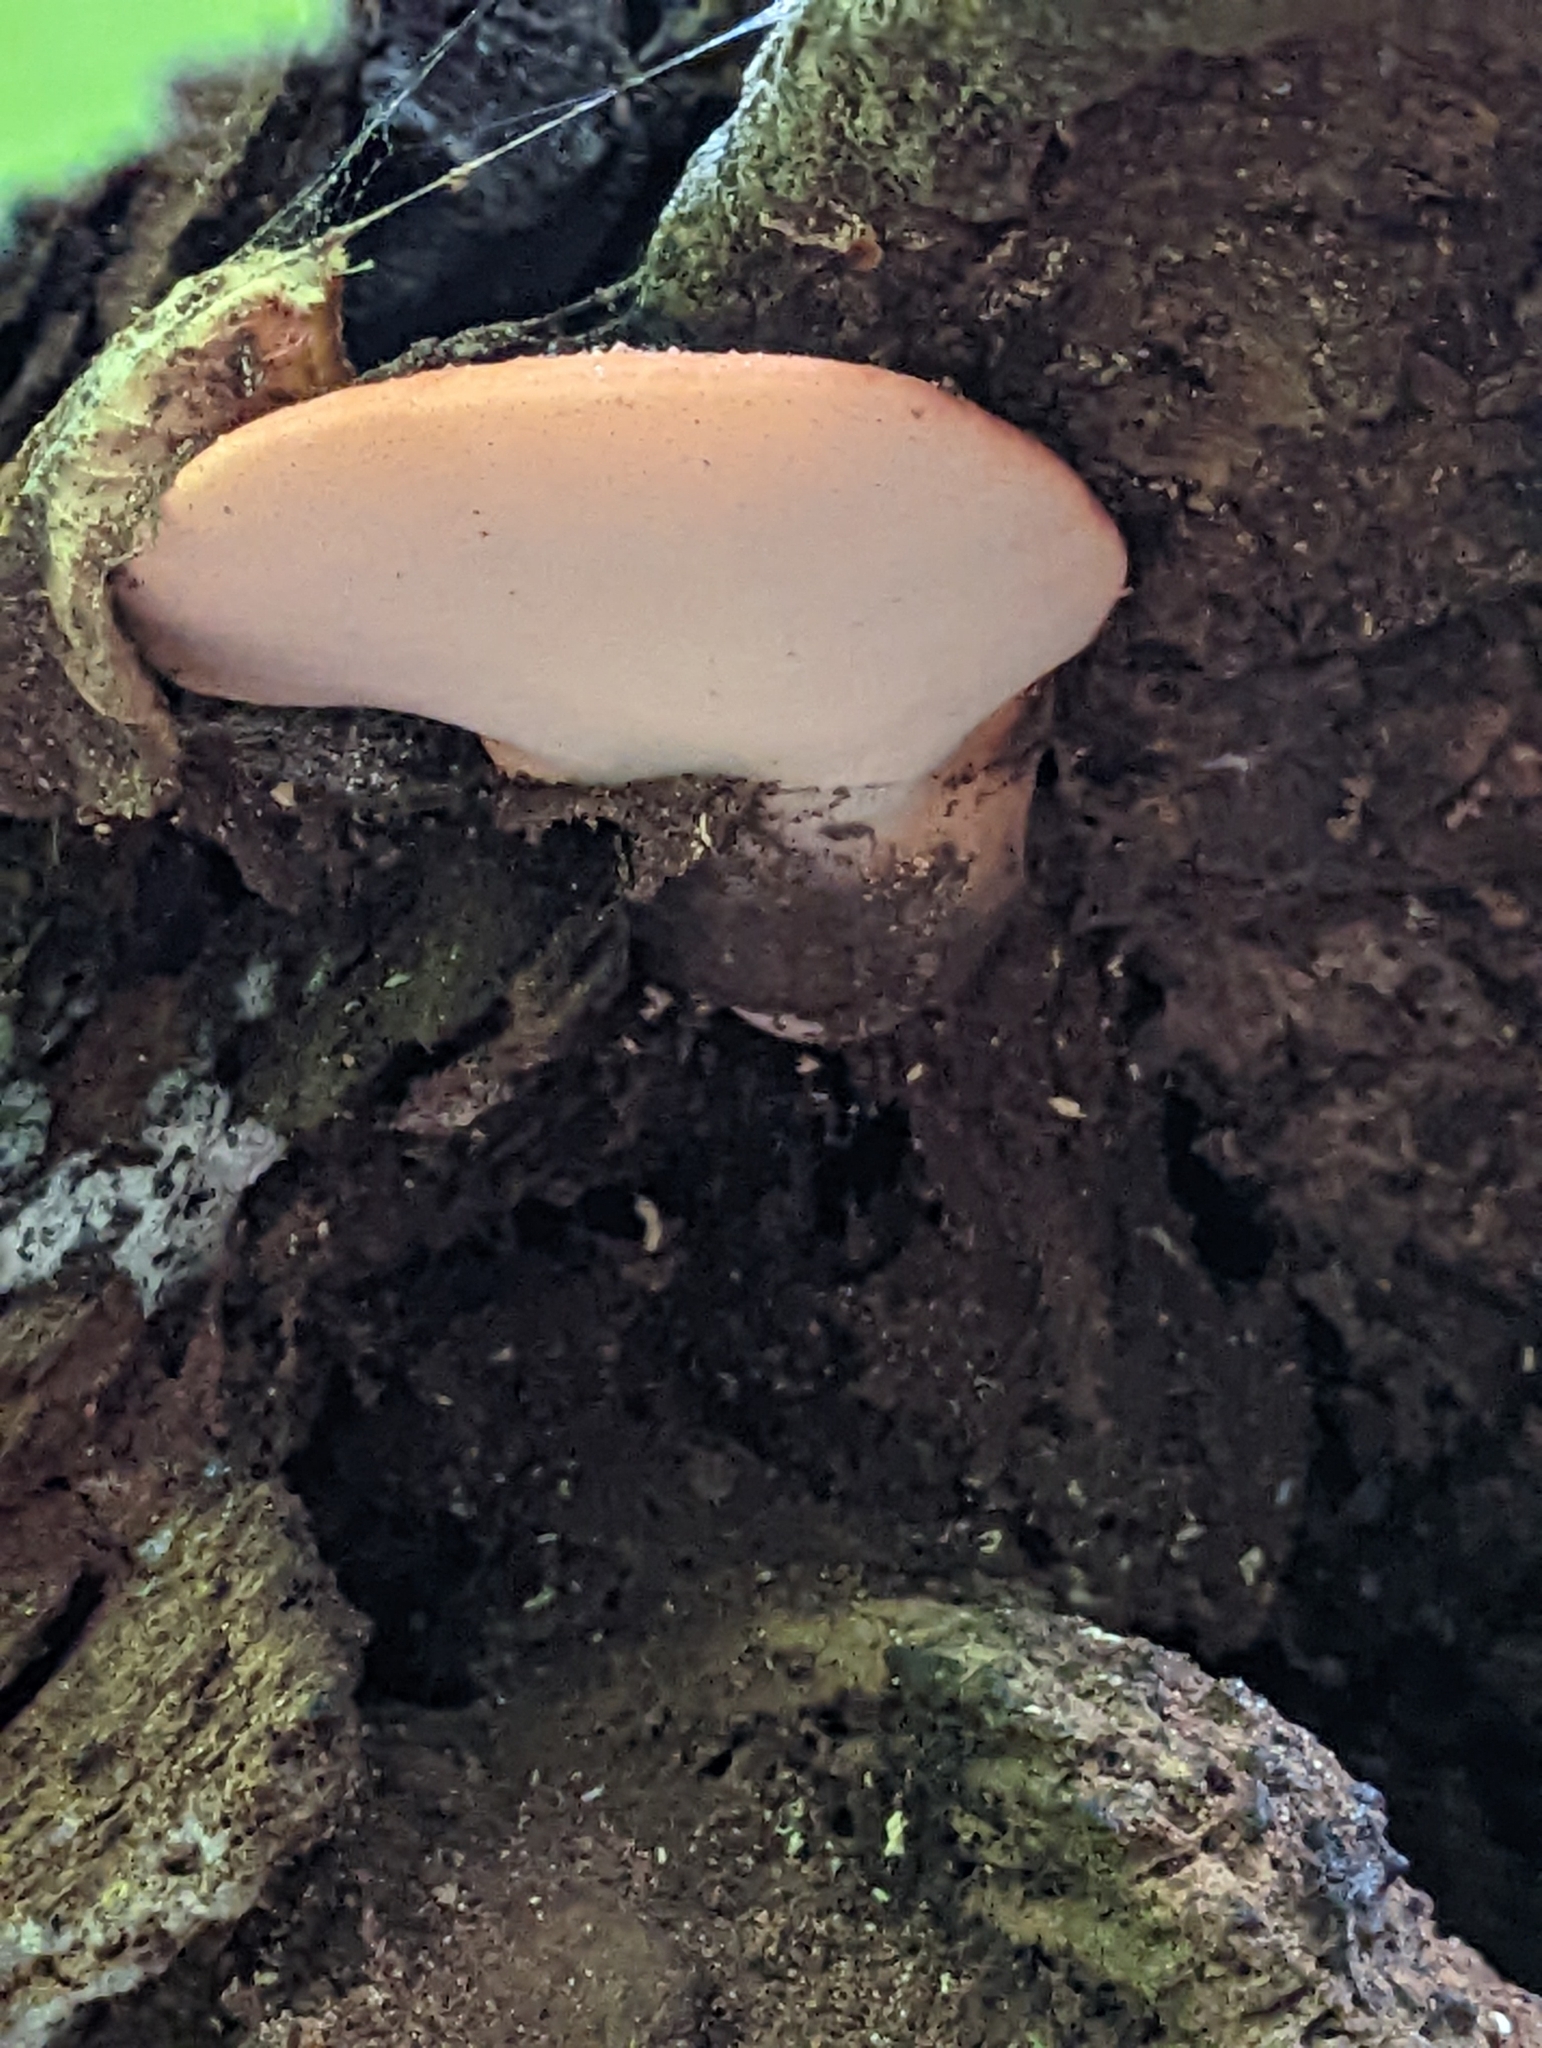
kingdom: Fungi
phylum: Basidiomycota
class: Agaricomycetes
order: Agaricales
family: Fistulinaceae
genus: Fistulina
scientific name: Fistulina hepatica
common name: Beef-steak fungus
